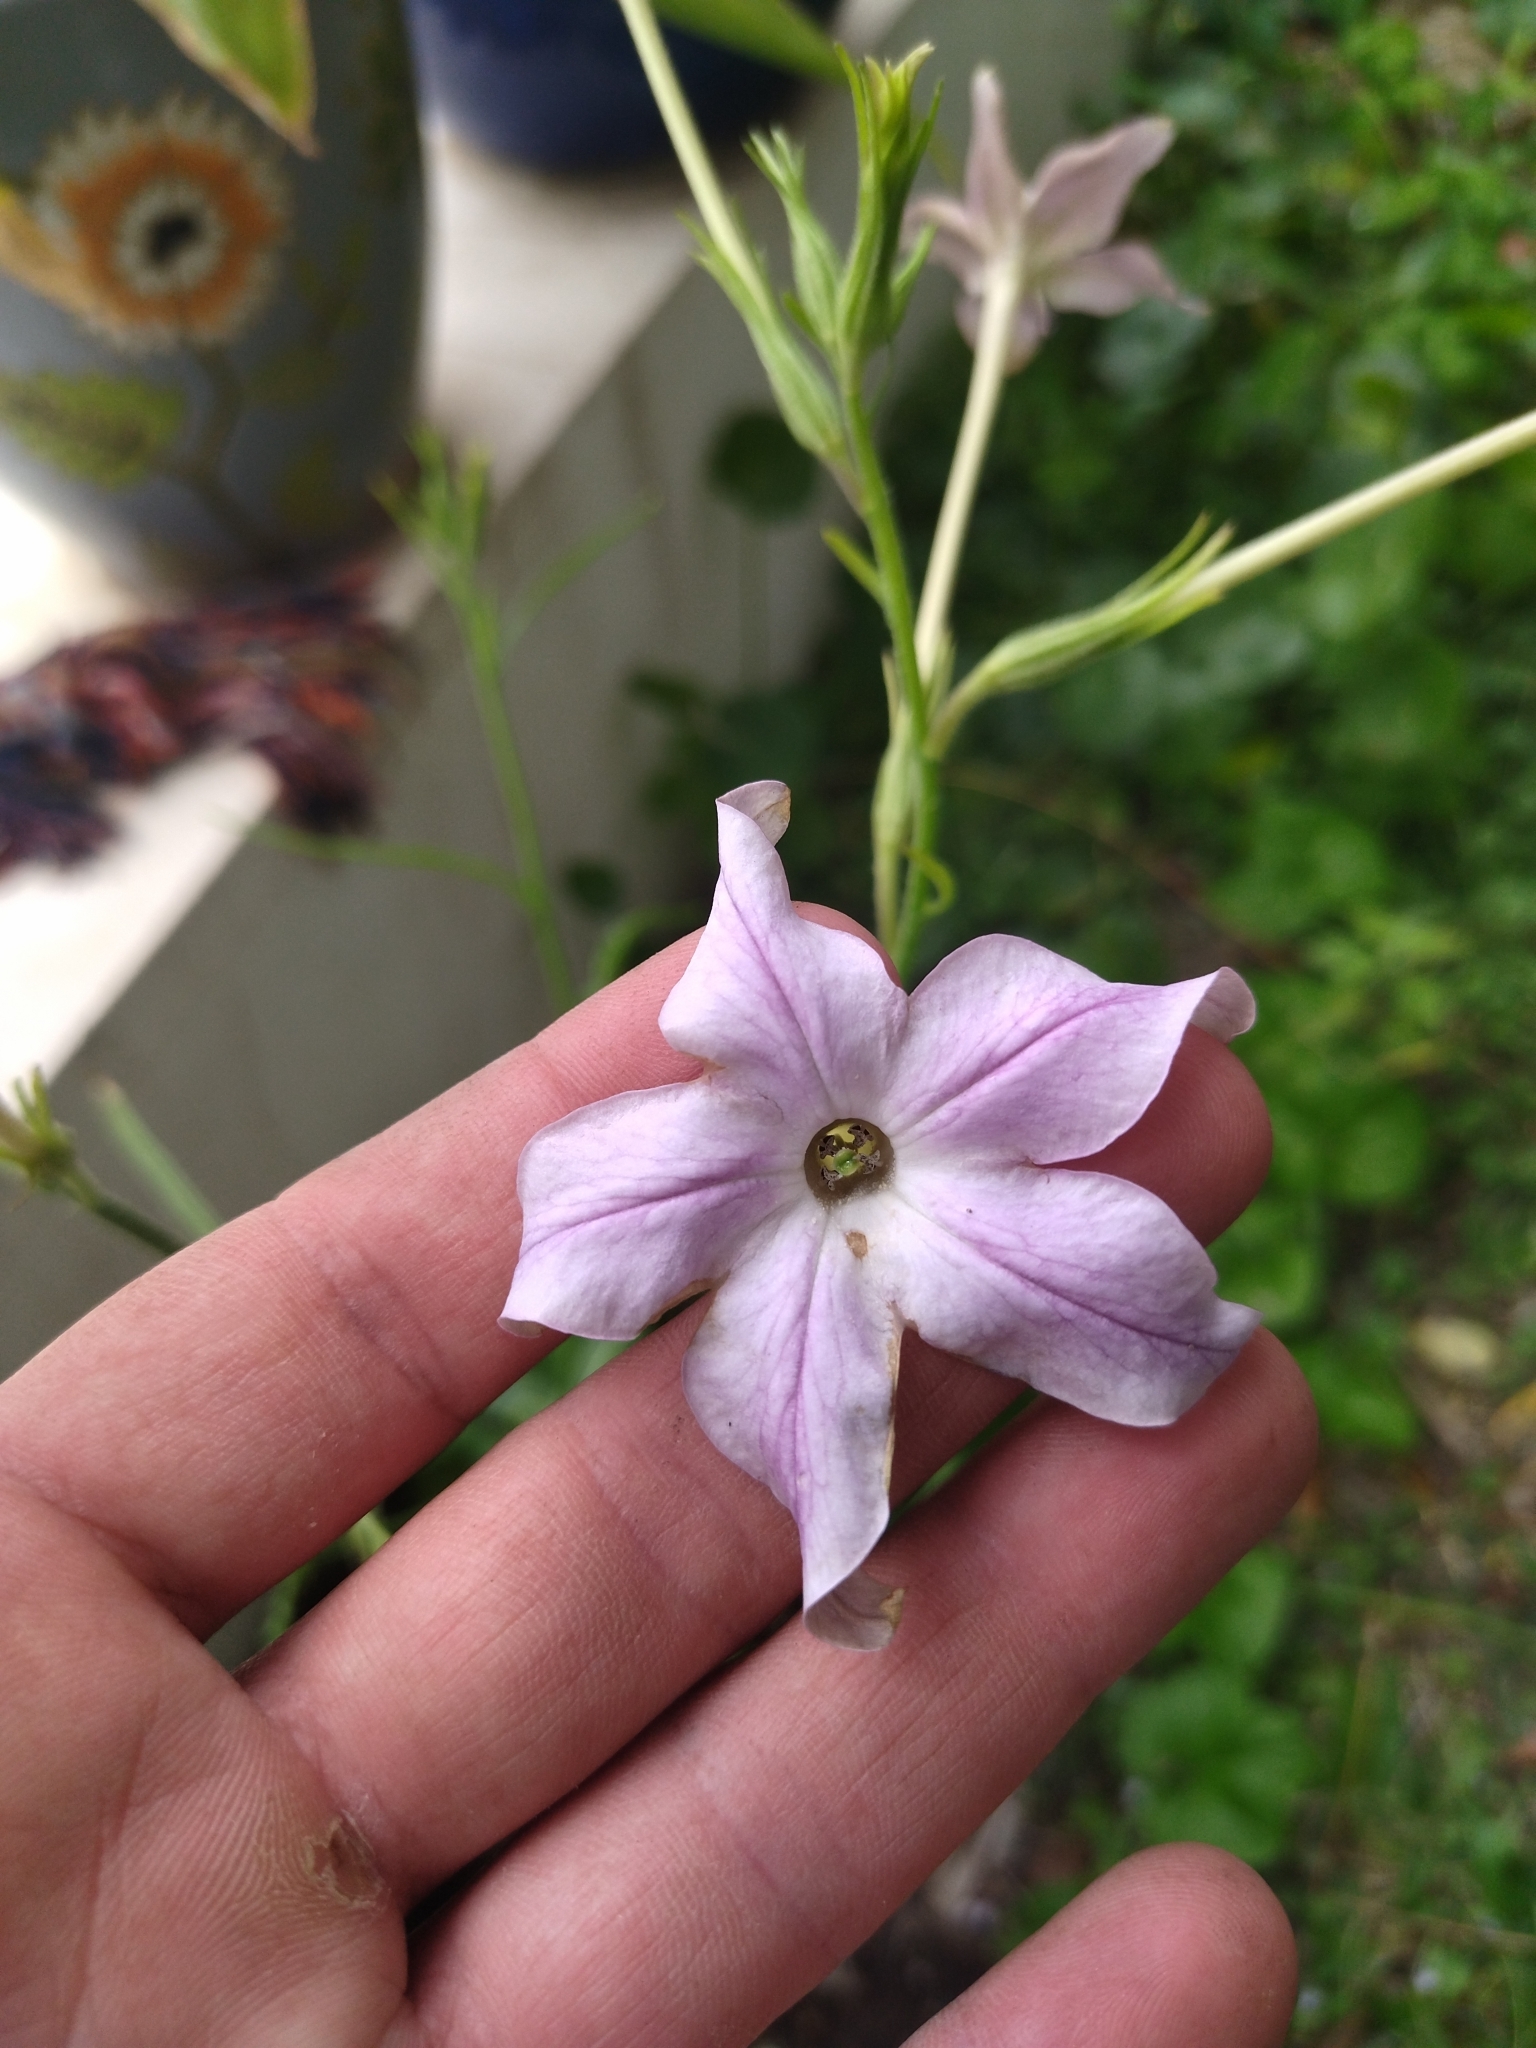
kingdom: Plantae
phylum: Tracheophyta
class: Magnoliopsida
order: Solanales
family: Solanaceae
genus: Nicotiana
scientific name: Nicotiana longiflora
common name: Long-flowered tobacco
